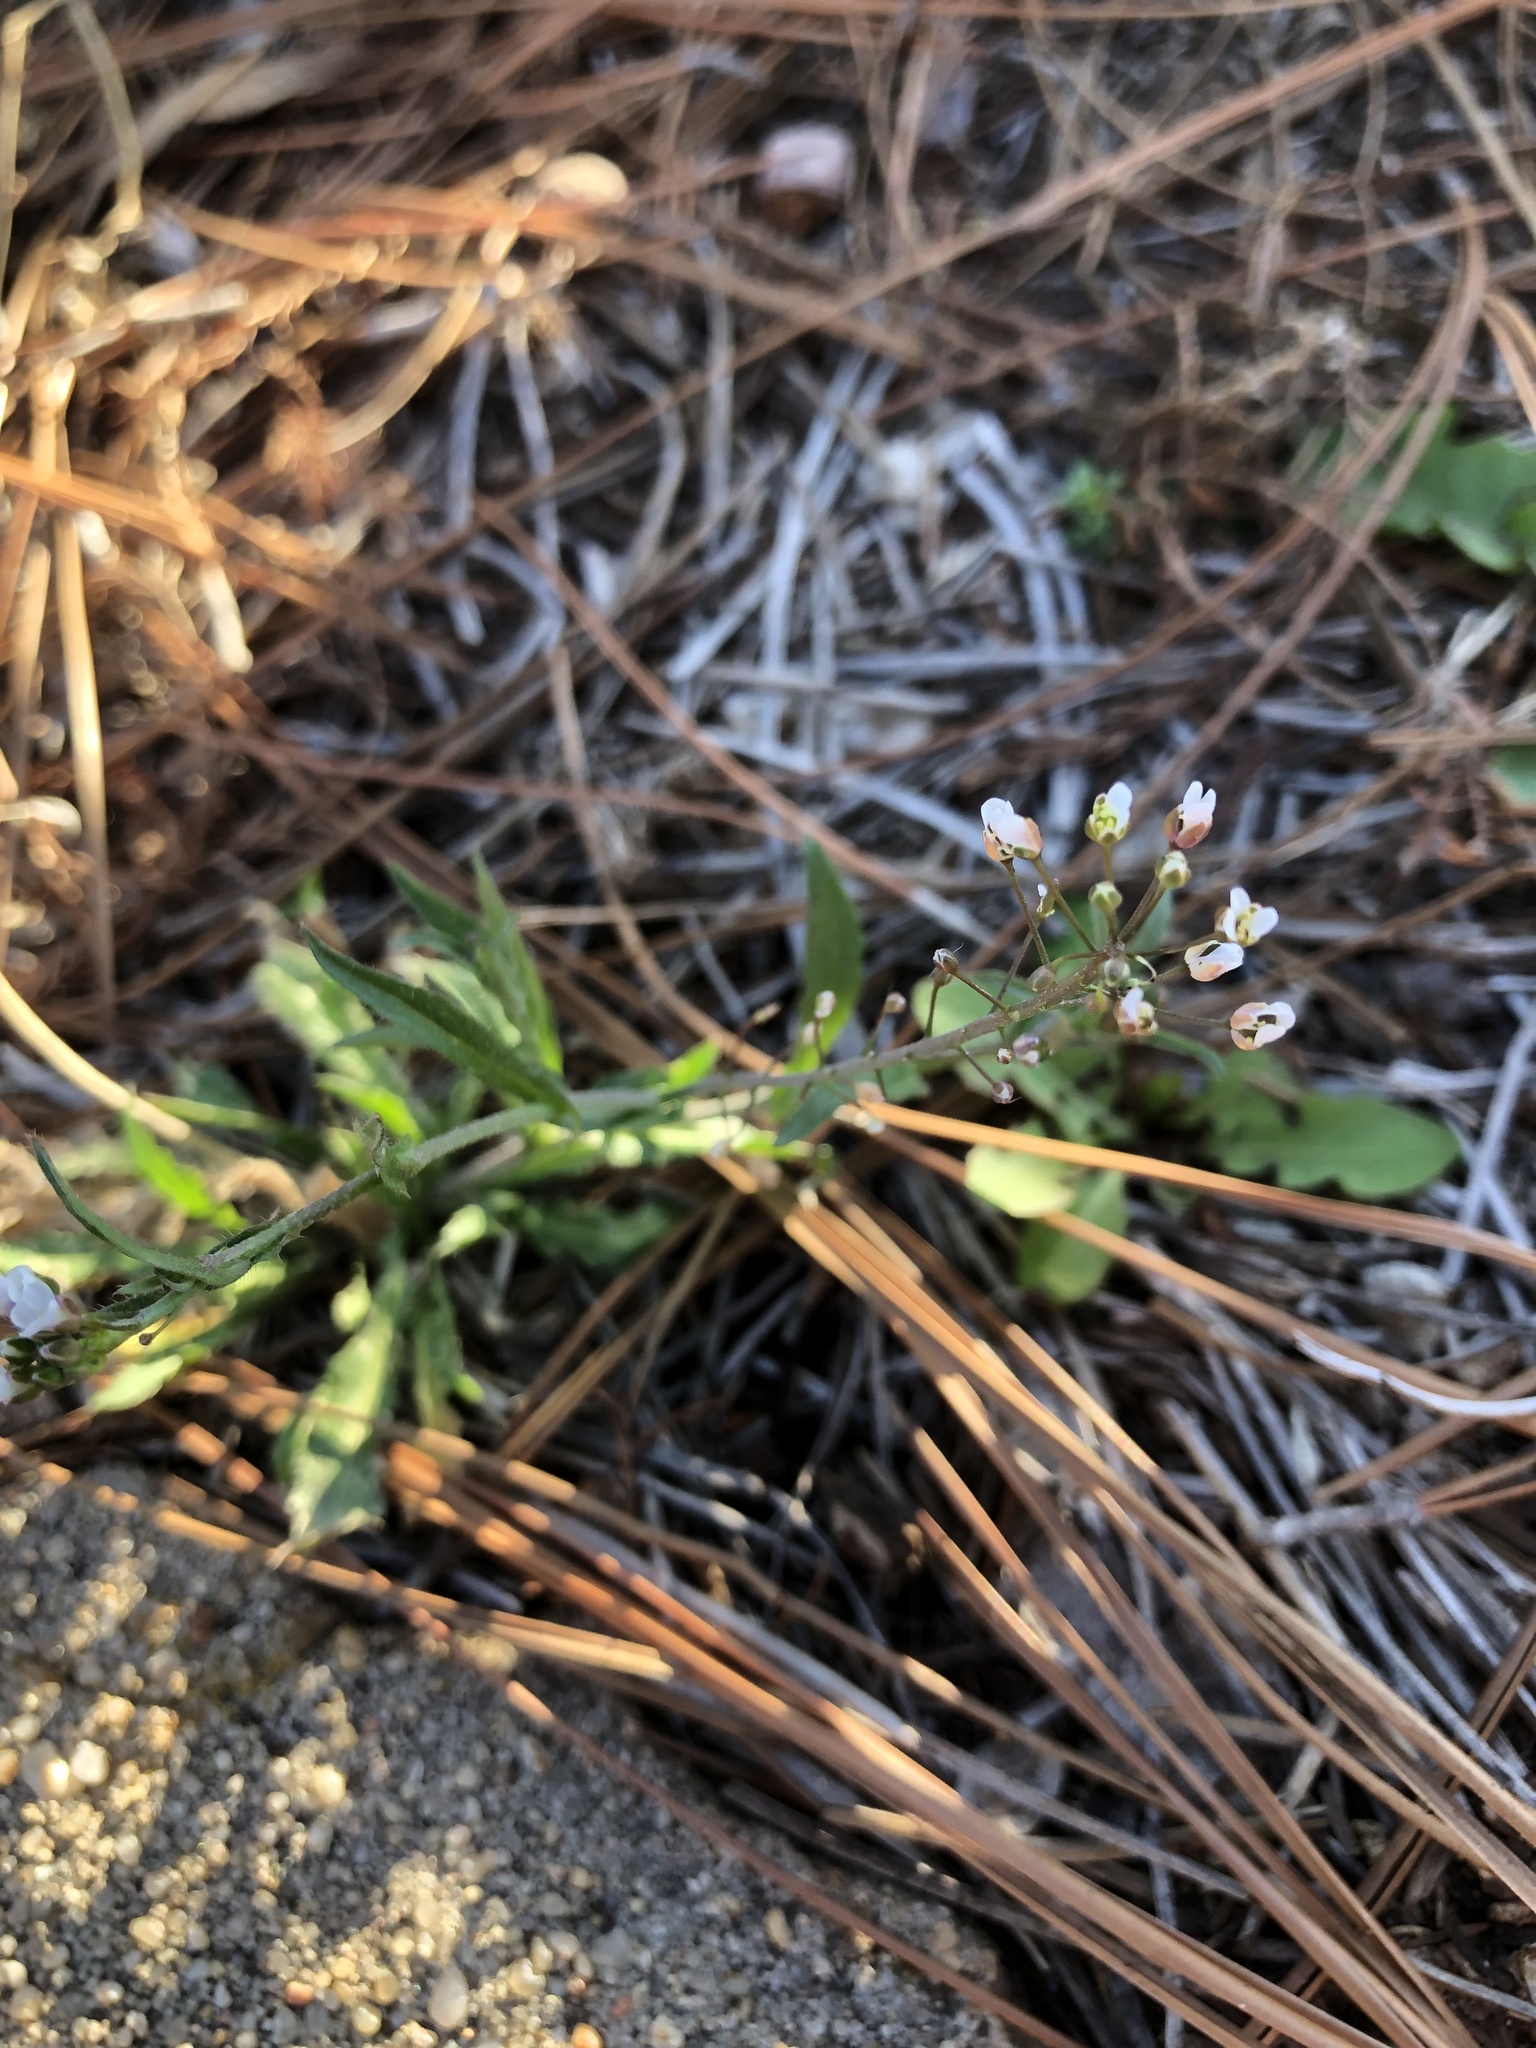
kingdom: Plantae
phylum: Tracheophyta
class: Magnoliopsida
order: Brassicales
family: Brassicaceae
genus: Capsella
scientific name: Capsella bursa-pastoris
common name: Shepherd's purse
